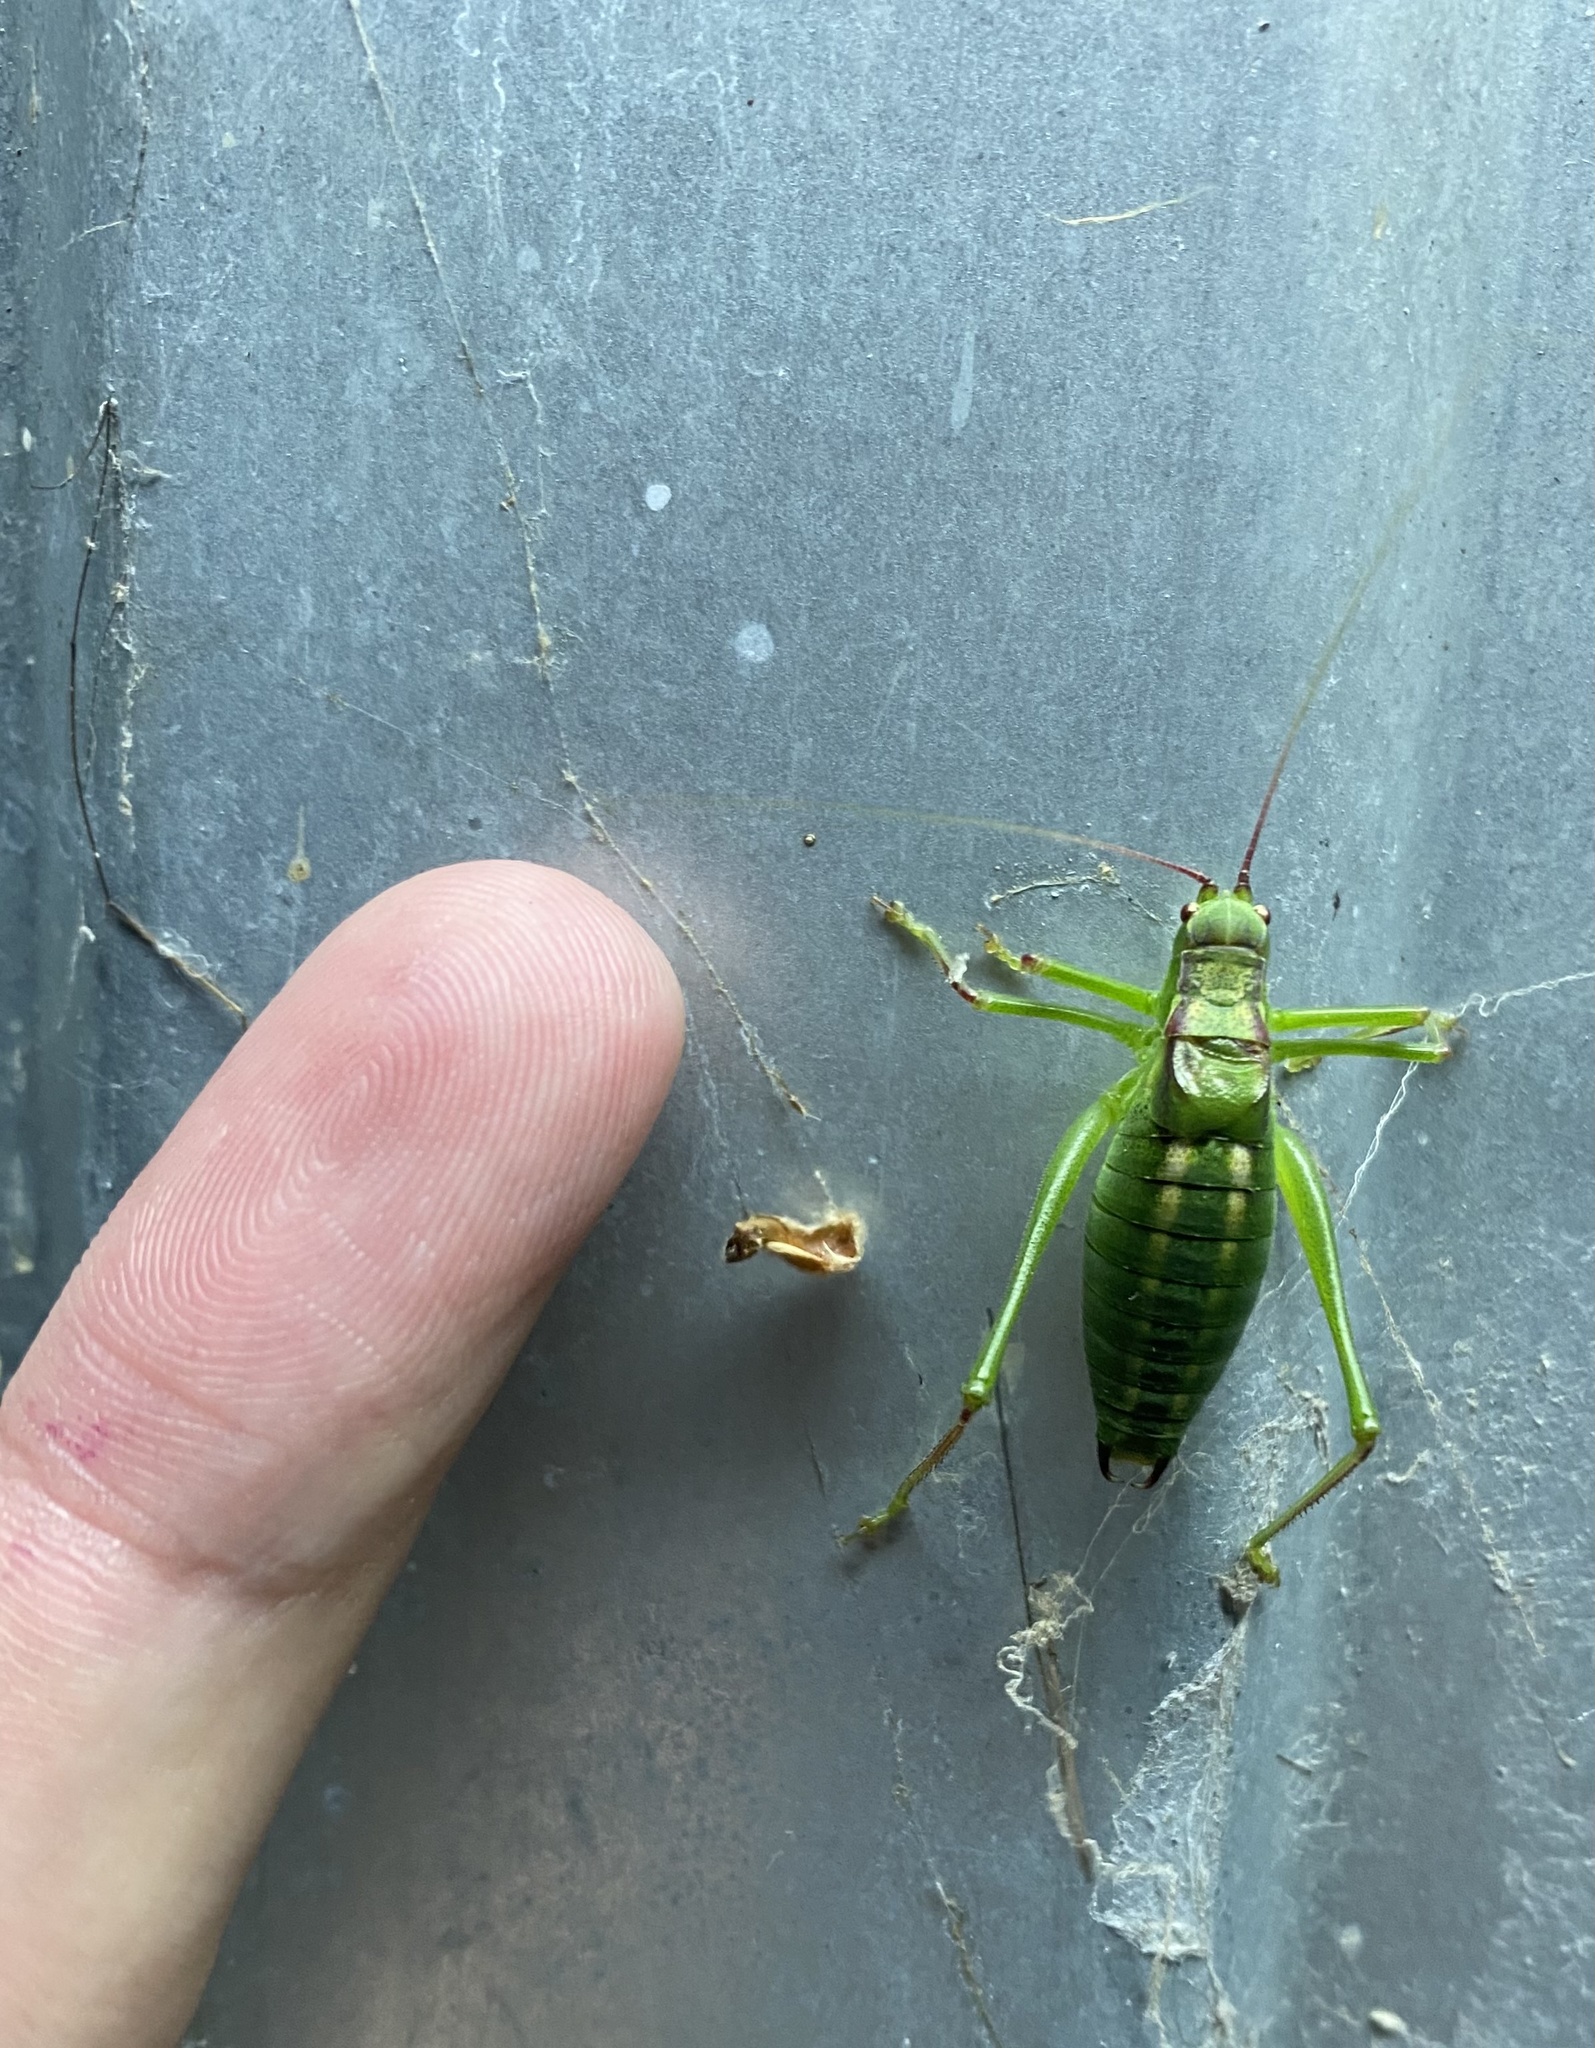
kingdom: Animalia
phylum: Arthropoda
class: Insecta
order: Orthoptera
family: Tettigoniidae
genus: Isophya
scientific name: Isophya gracilis
